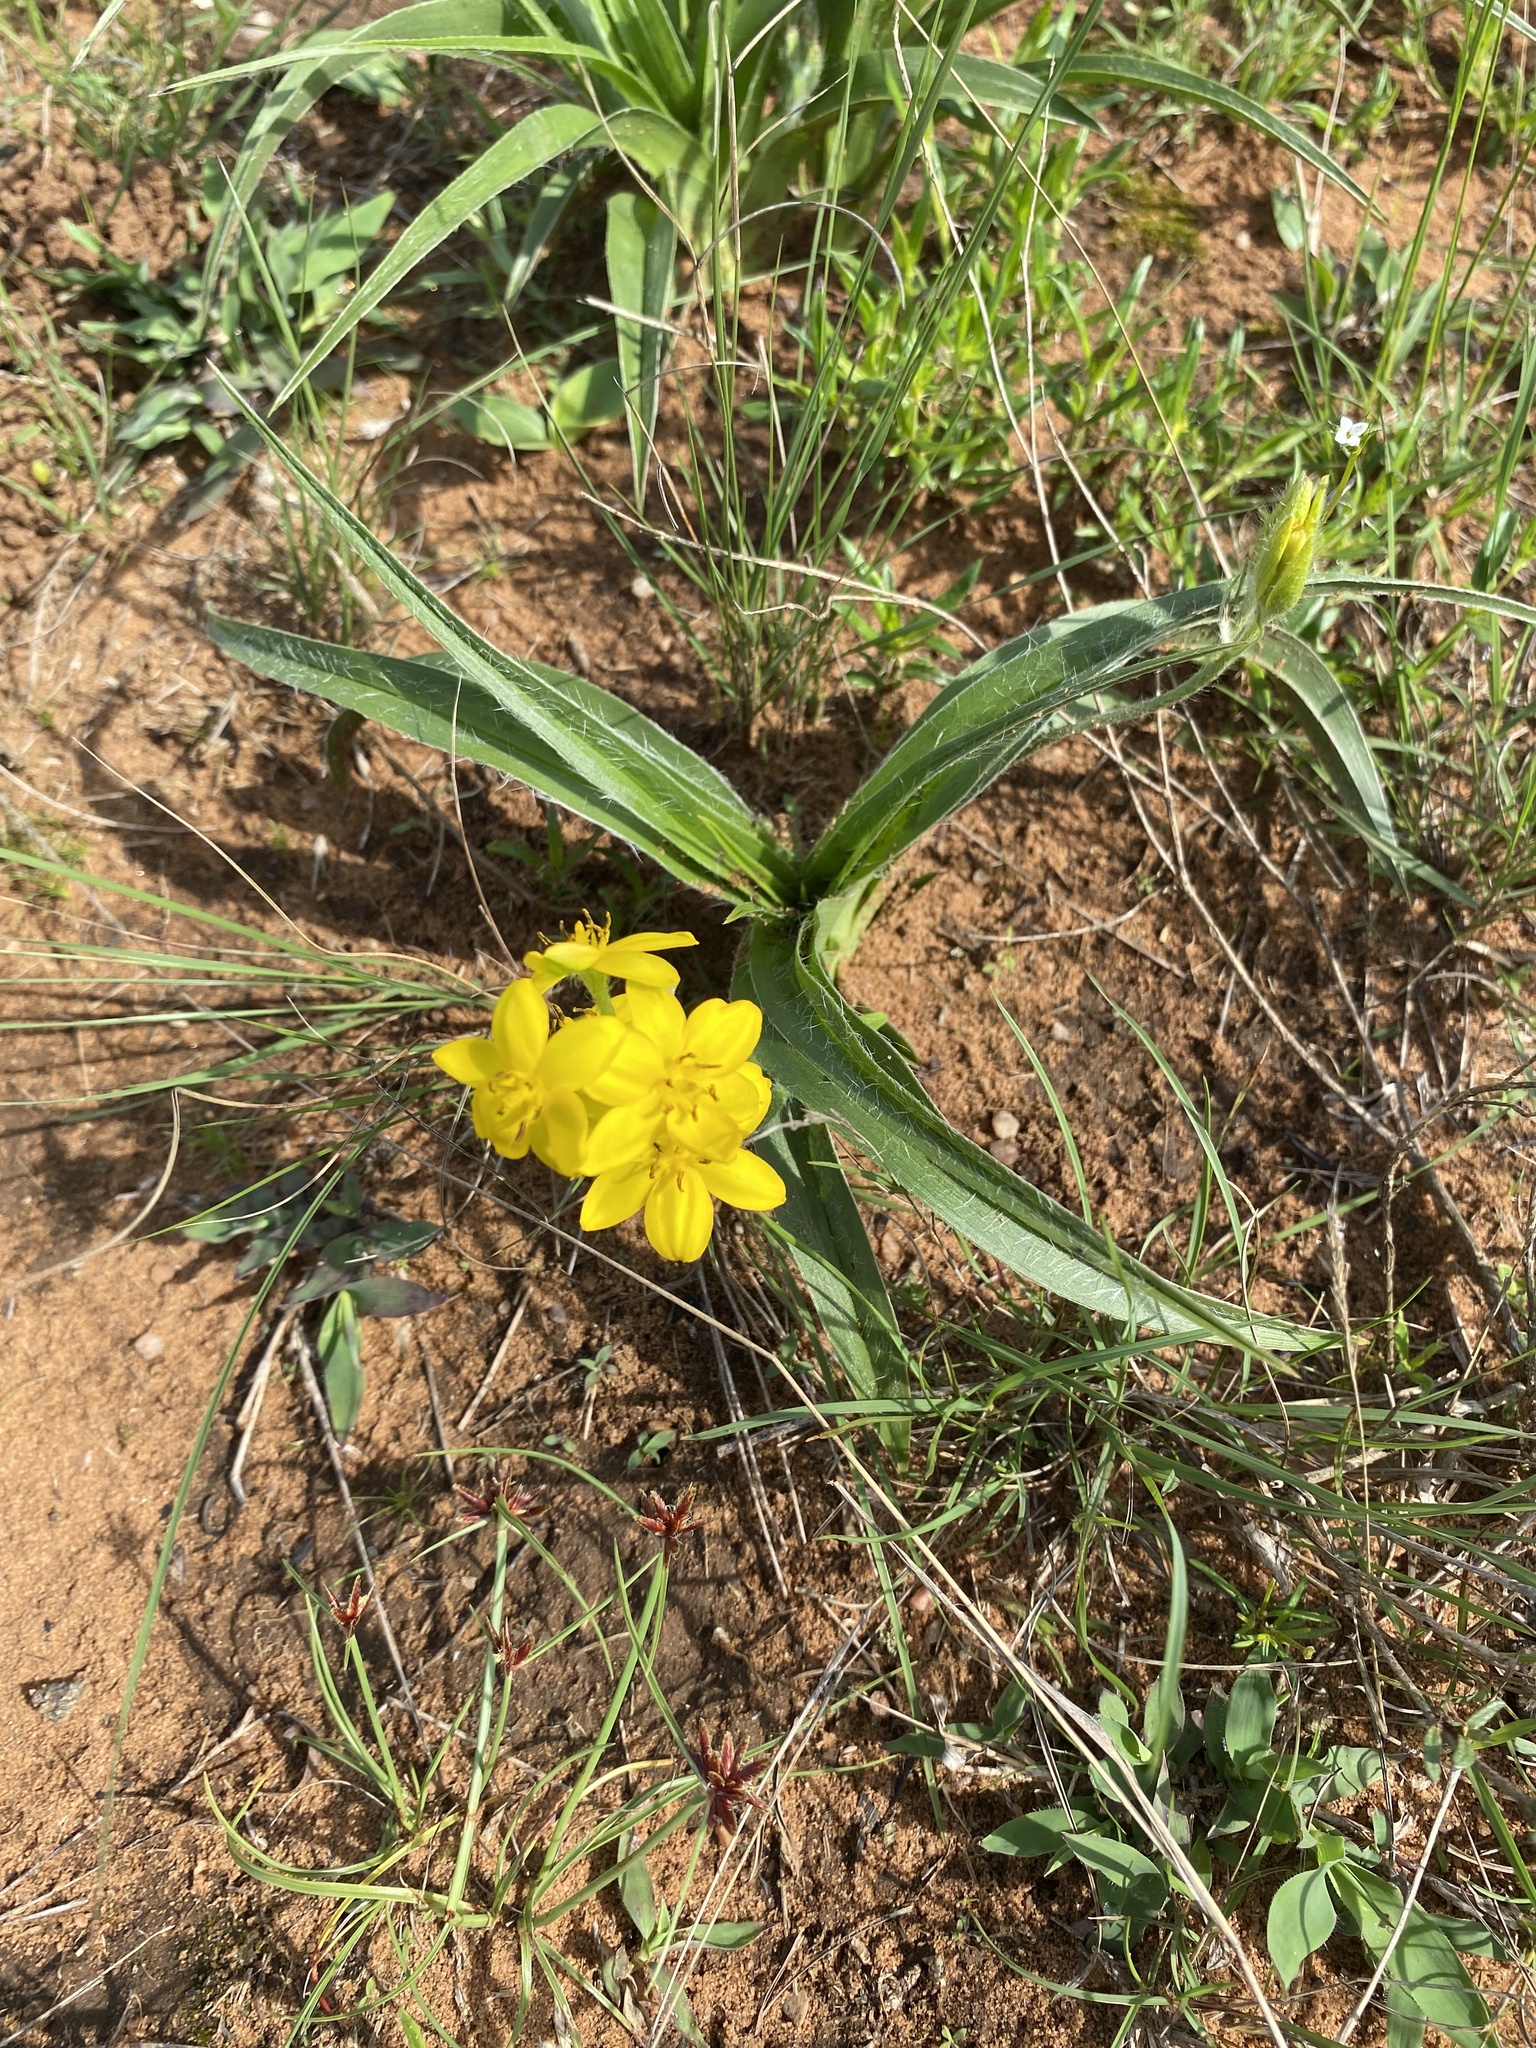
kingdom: Plantae
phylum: Tracheophyta
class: Liliopsida
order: Asparagales
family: Hypoxidaceae
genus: Hypoxis
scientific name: Hypoxis hemerocallidea
